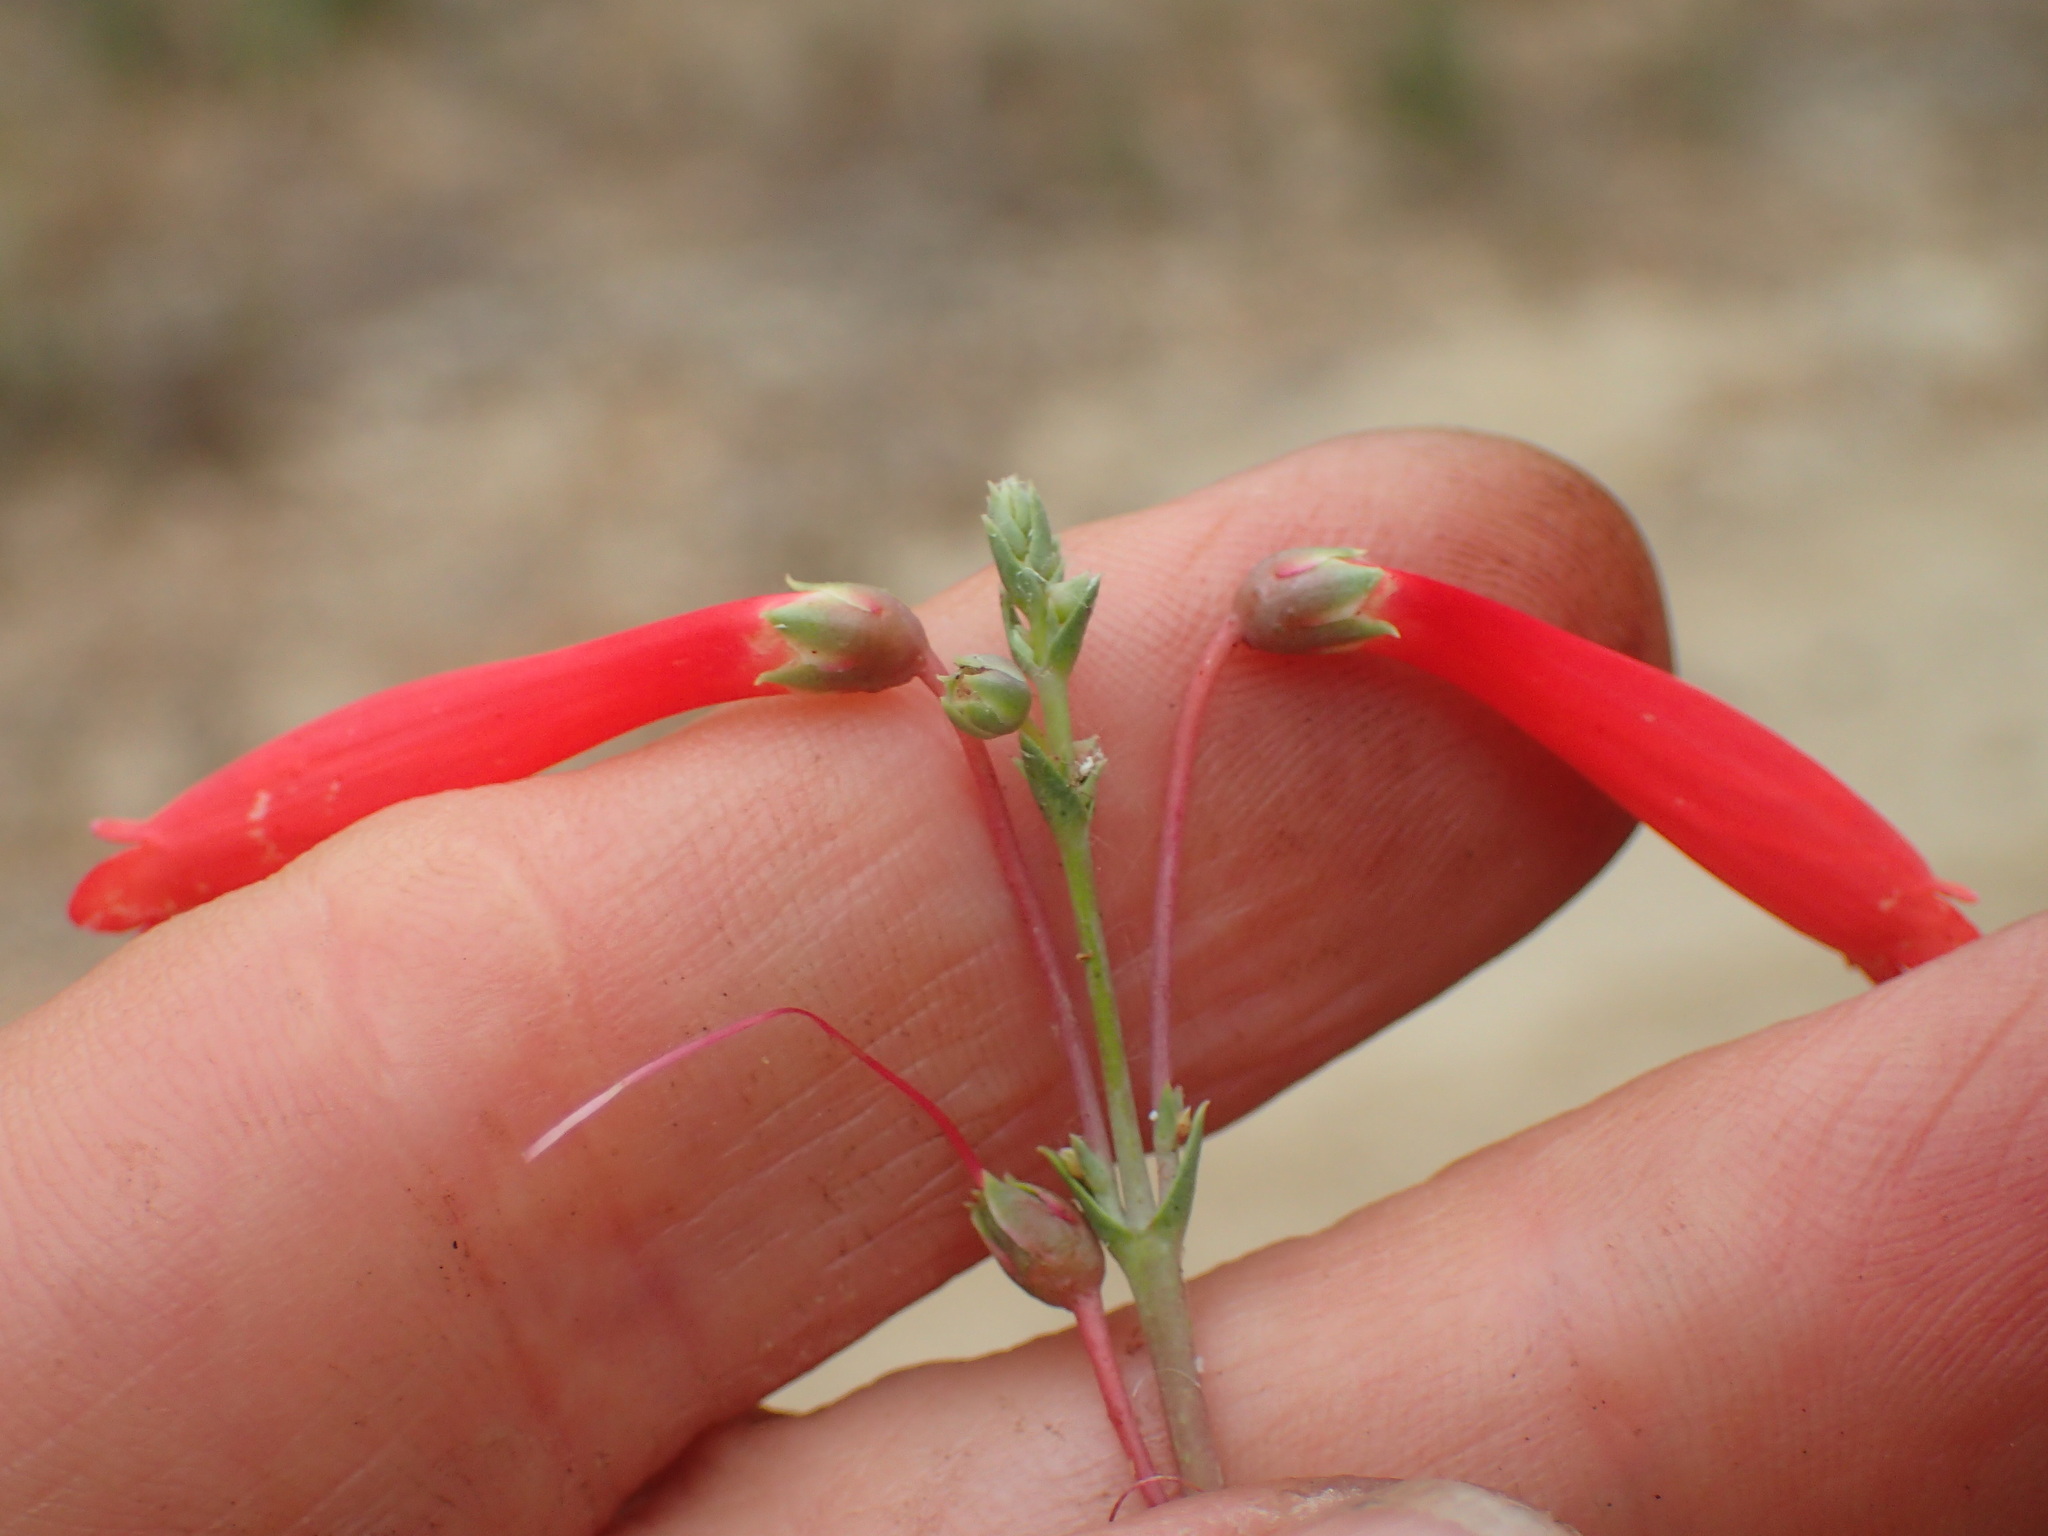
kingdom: Plantae
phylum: Tracheophyta
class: Magnoliopsida
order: Lamiales
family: Plantaginaceae
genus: Penstemon
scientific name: Penstemon centranthifolius
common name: Scarlet bugler
